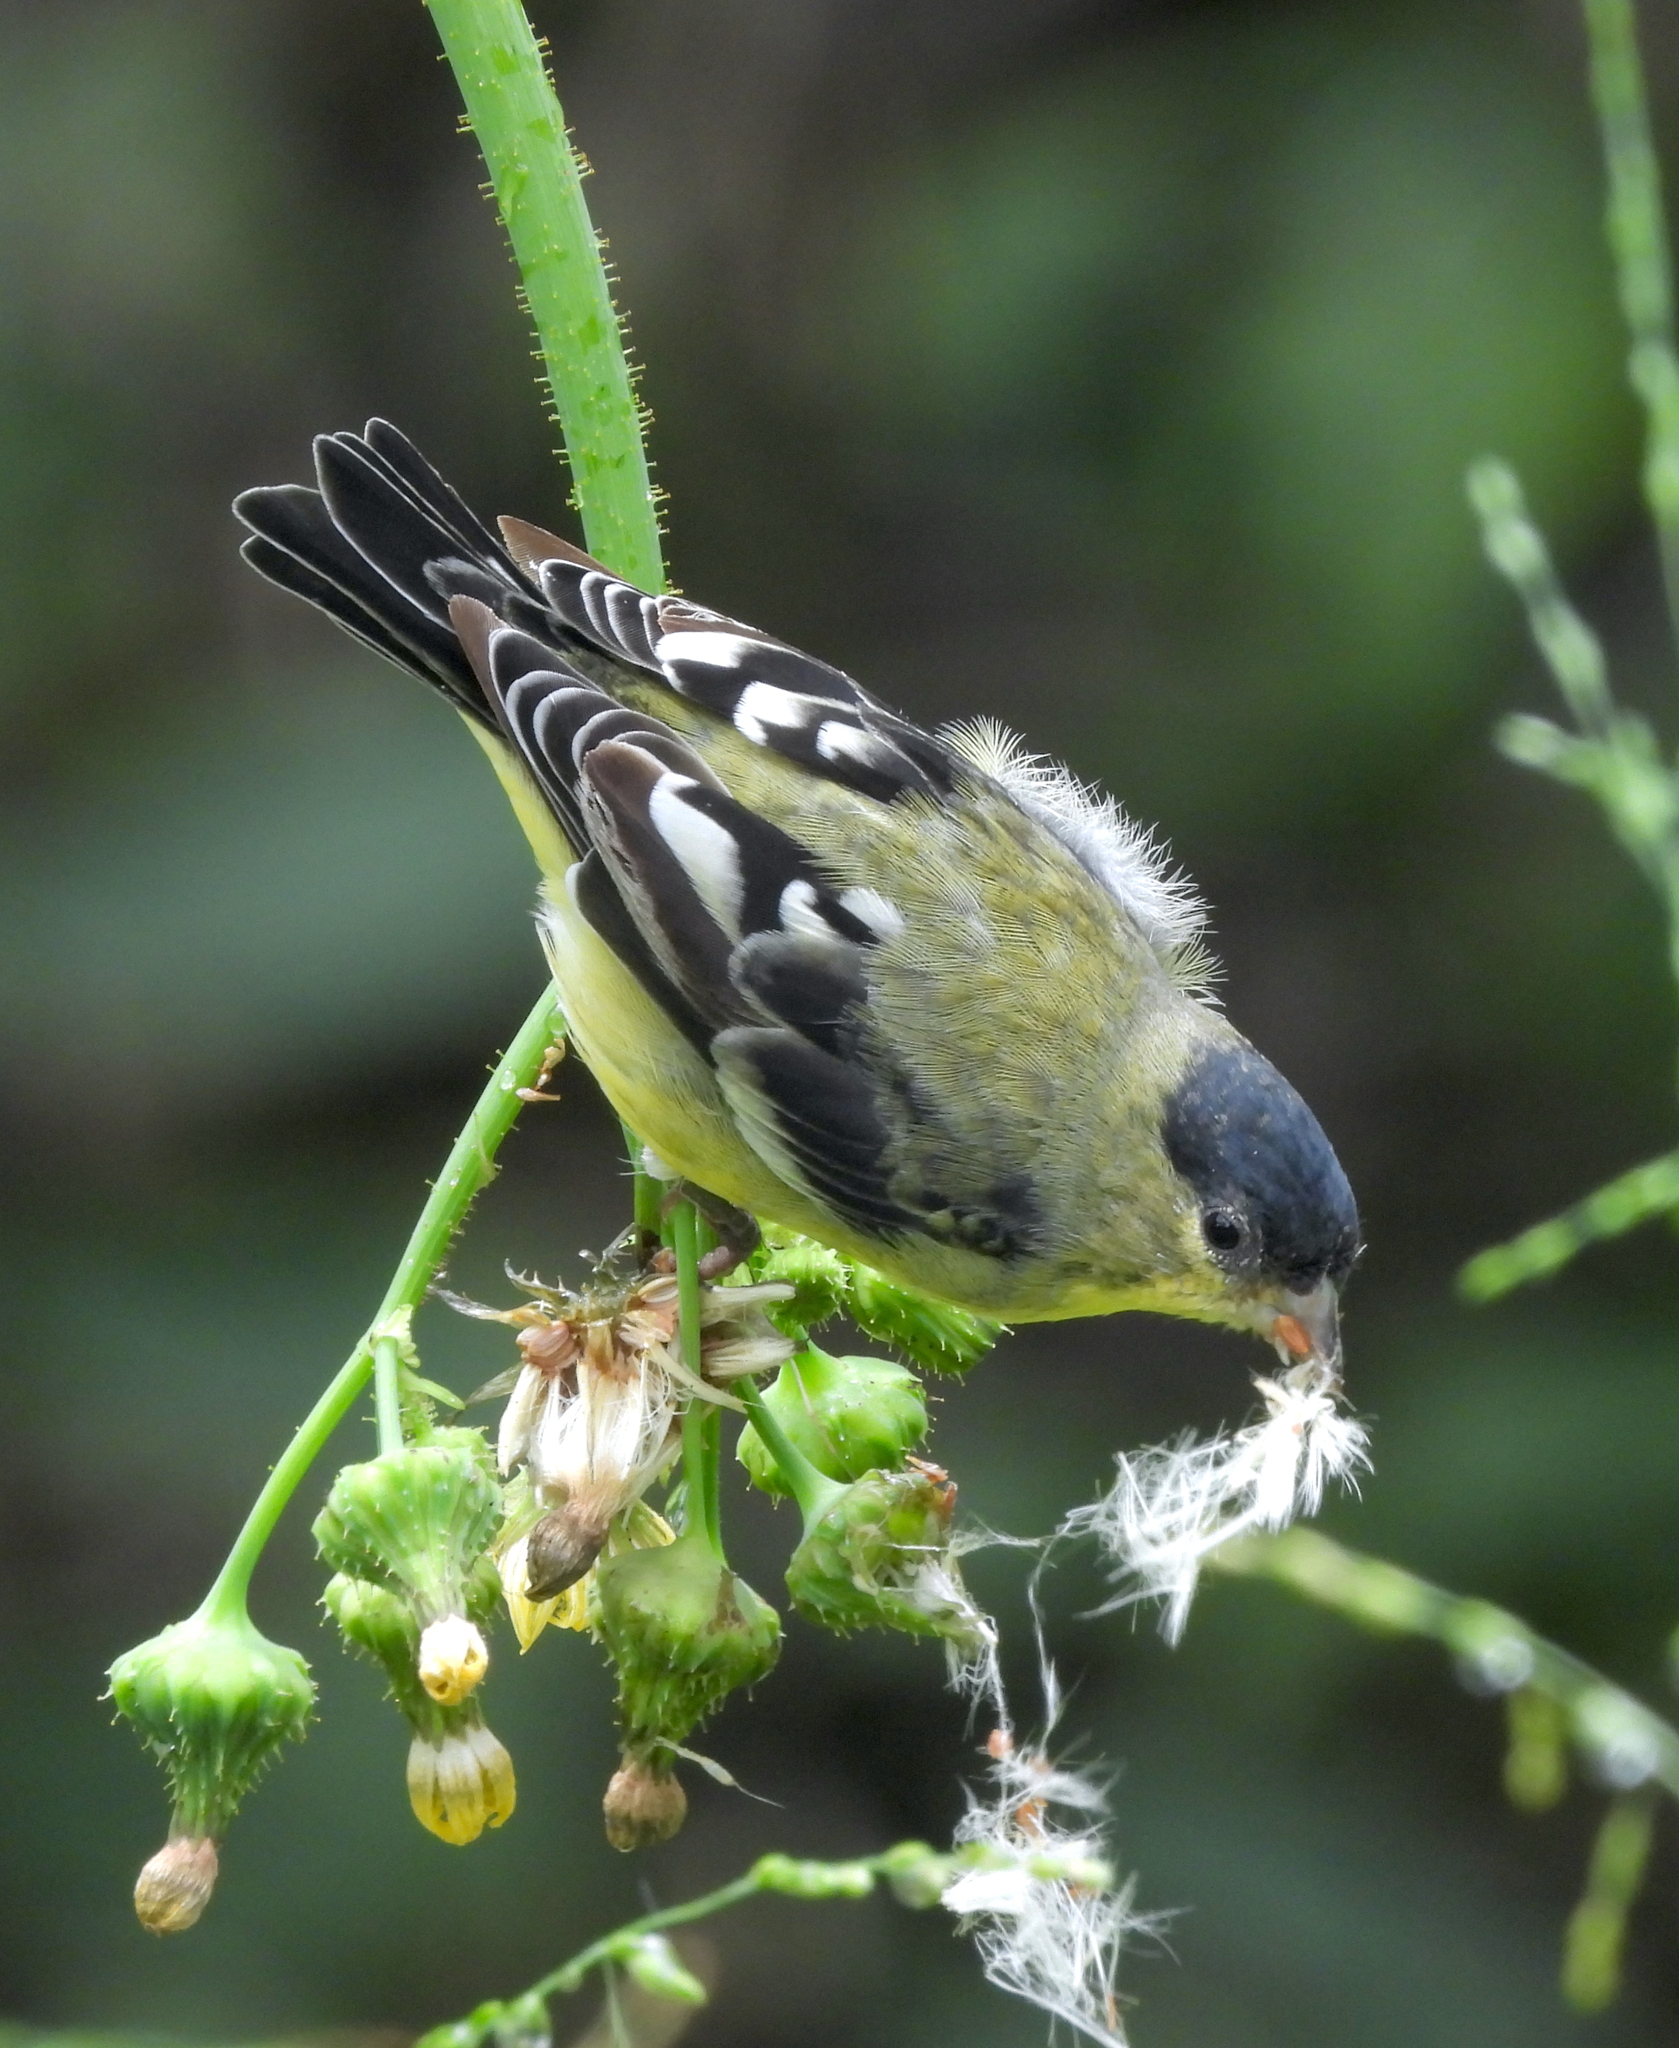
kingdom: Animalia
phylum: Chordata
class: Aves
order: Passeriformes
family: Fringillidae
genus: Spinus
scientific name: Spinus psaltria
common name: Lesser goldfinch
